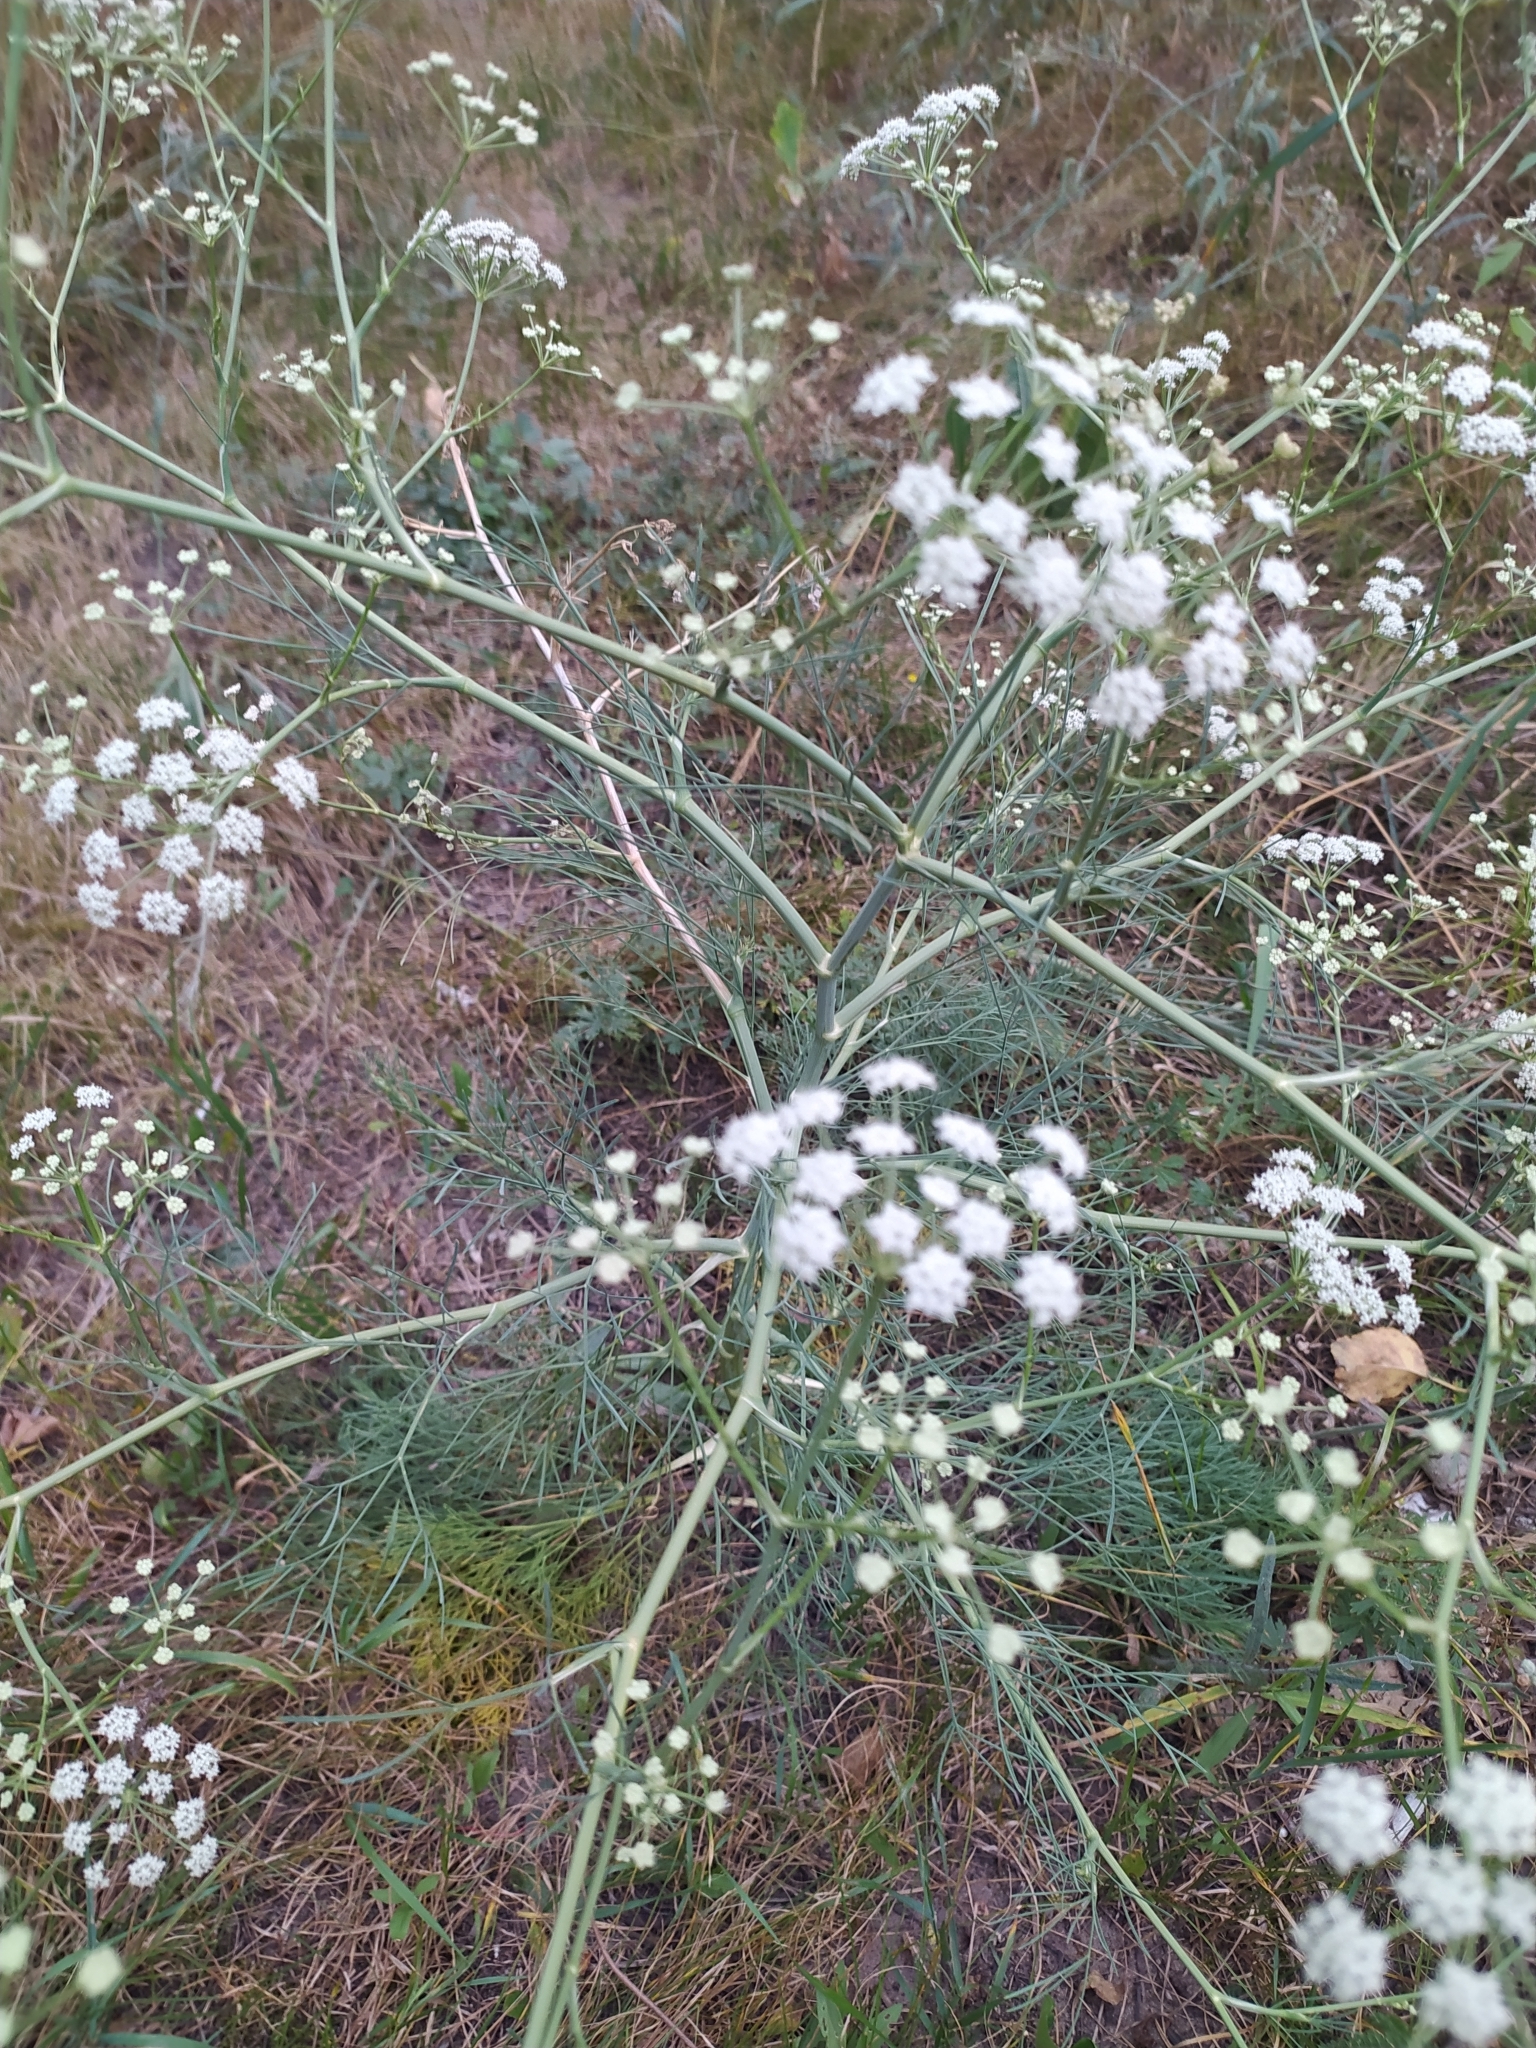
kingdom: Plantae
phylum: Tracheophyta
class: Magnoliopsida
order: Apiales
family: Apiaceae
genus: Seseli
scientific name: Seseli arenarium
